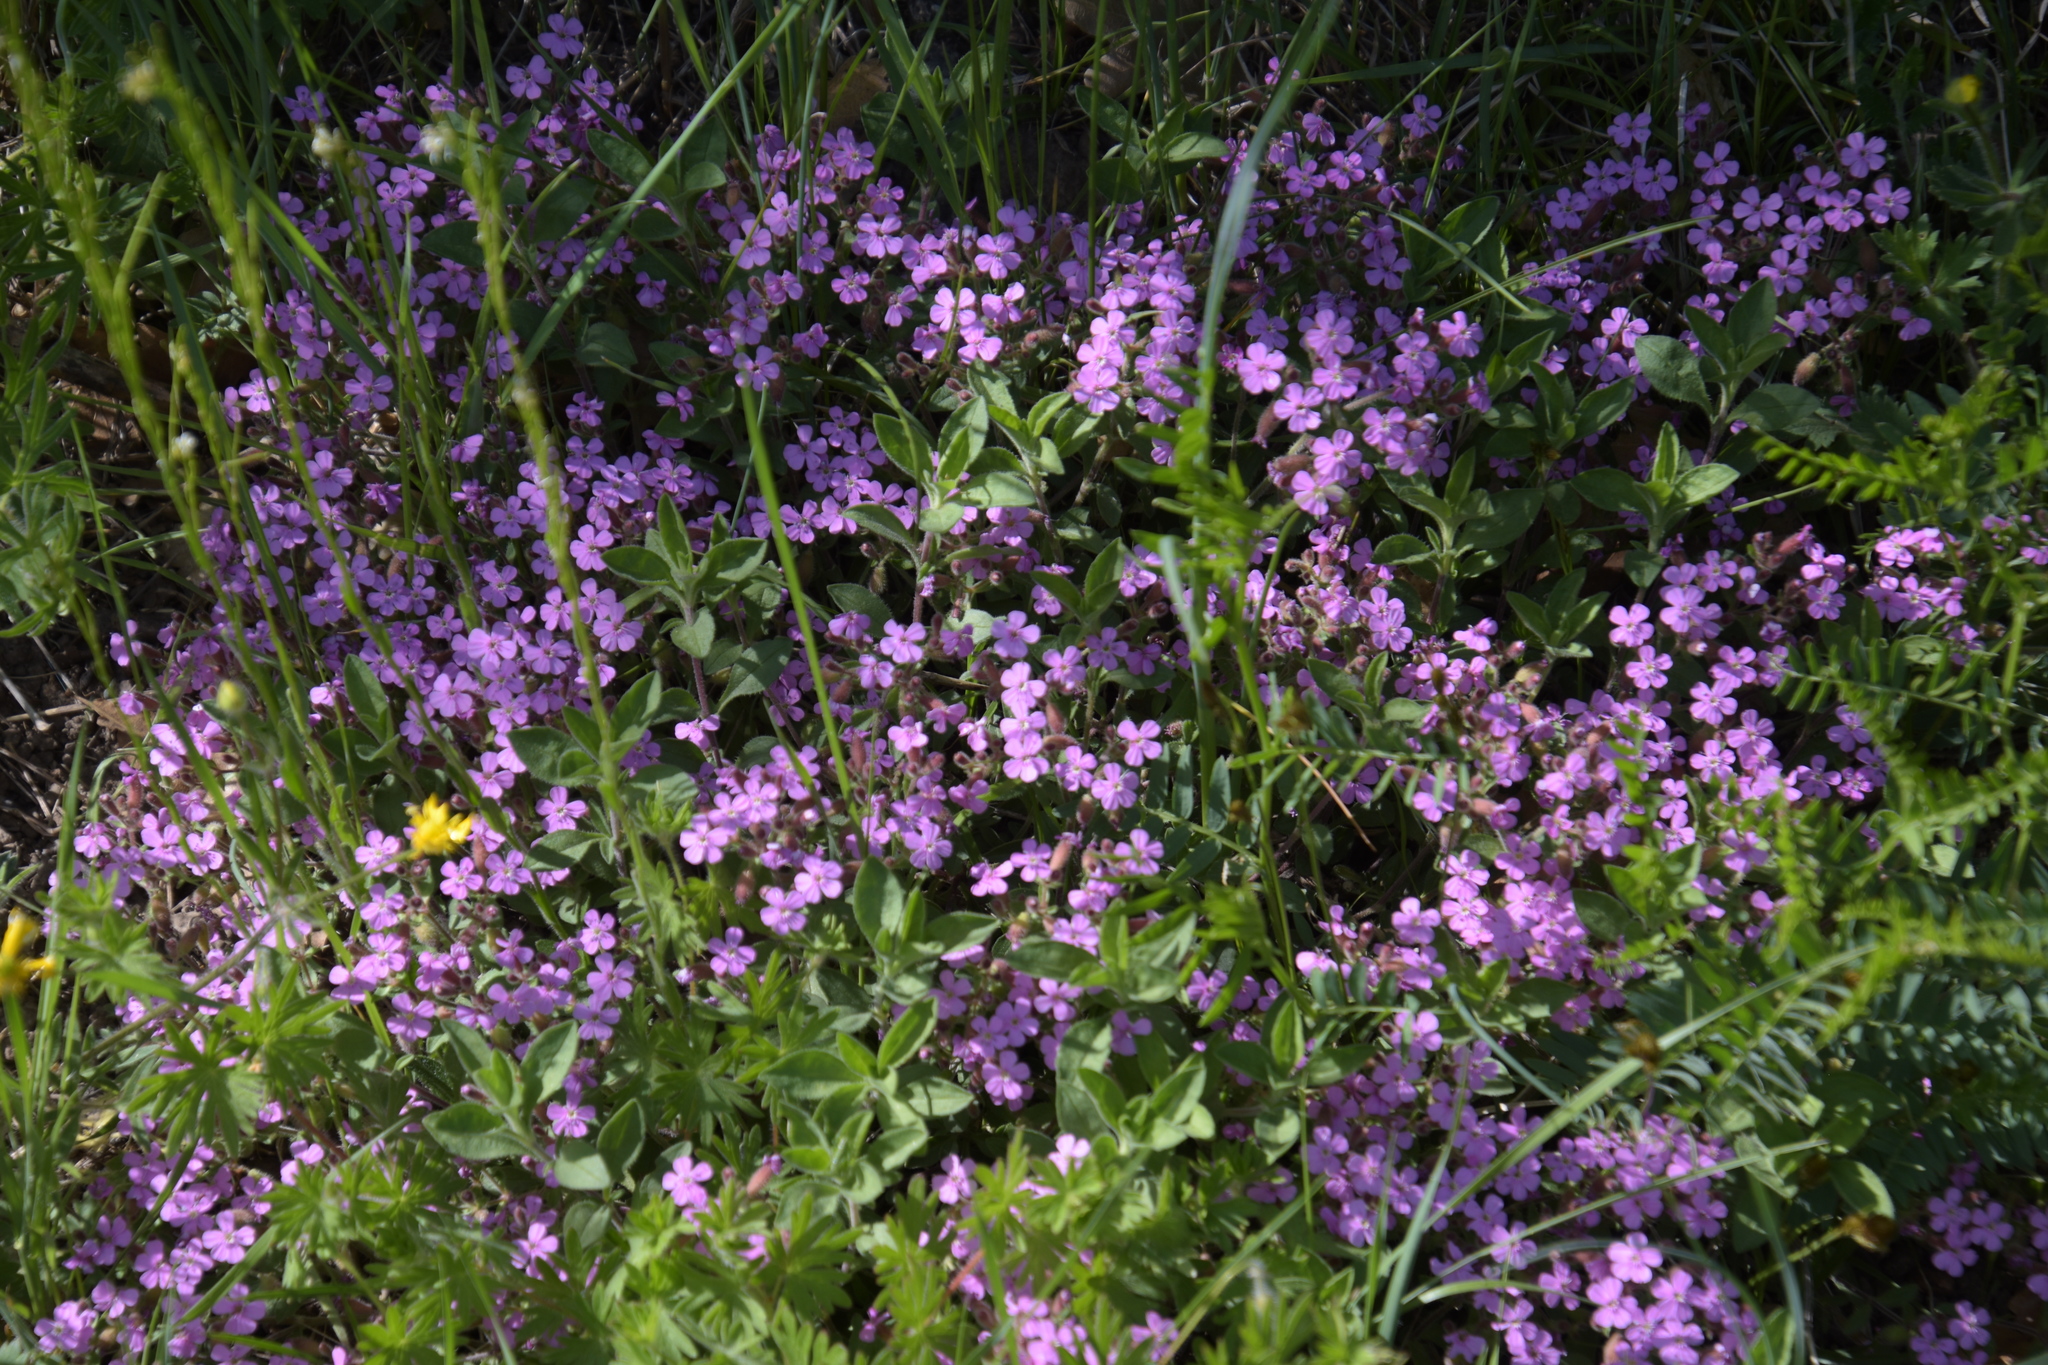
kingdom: Plantae
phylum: Tracheophyta
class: Magnoliopsida
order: Caryophyllales
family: Caryophyllaceae
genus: Saponaria
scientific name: Saponaria ocymoides
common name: Rock soapwort
